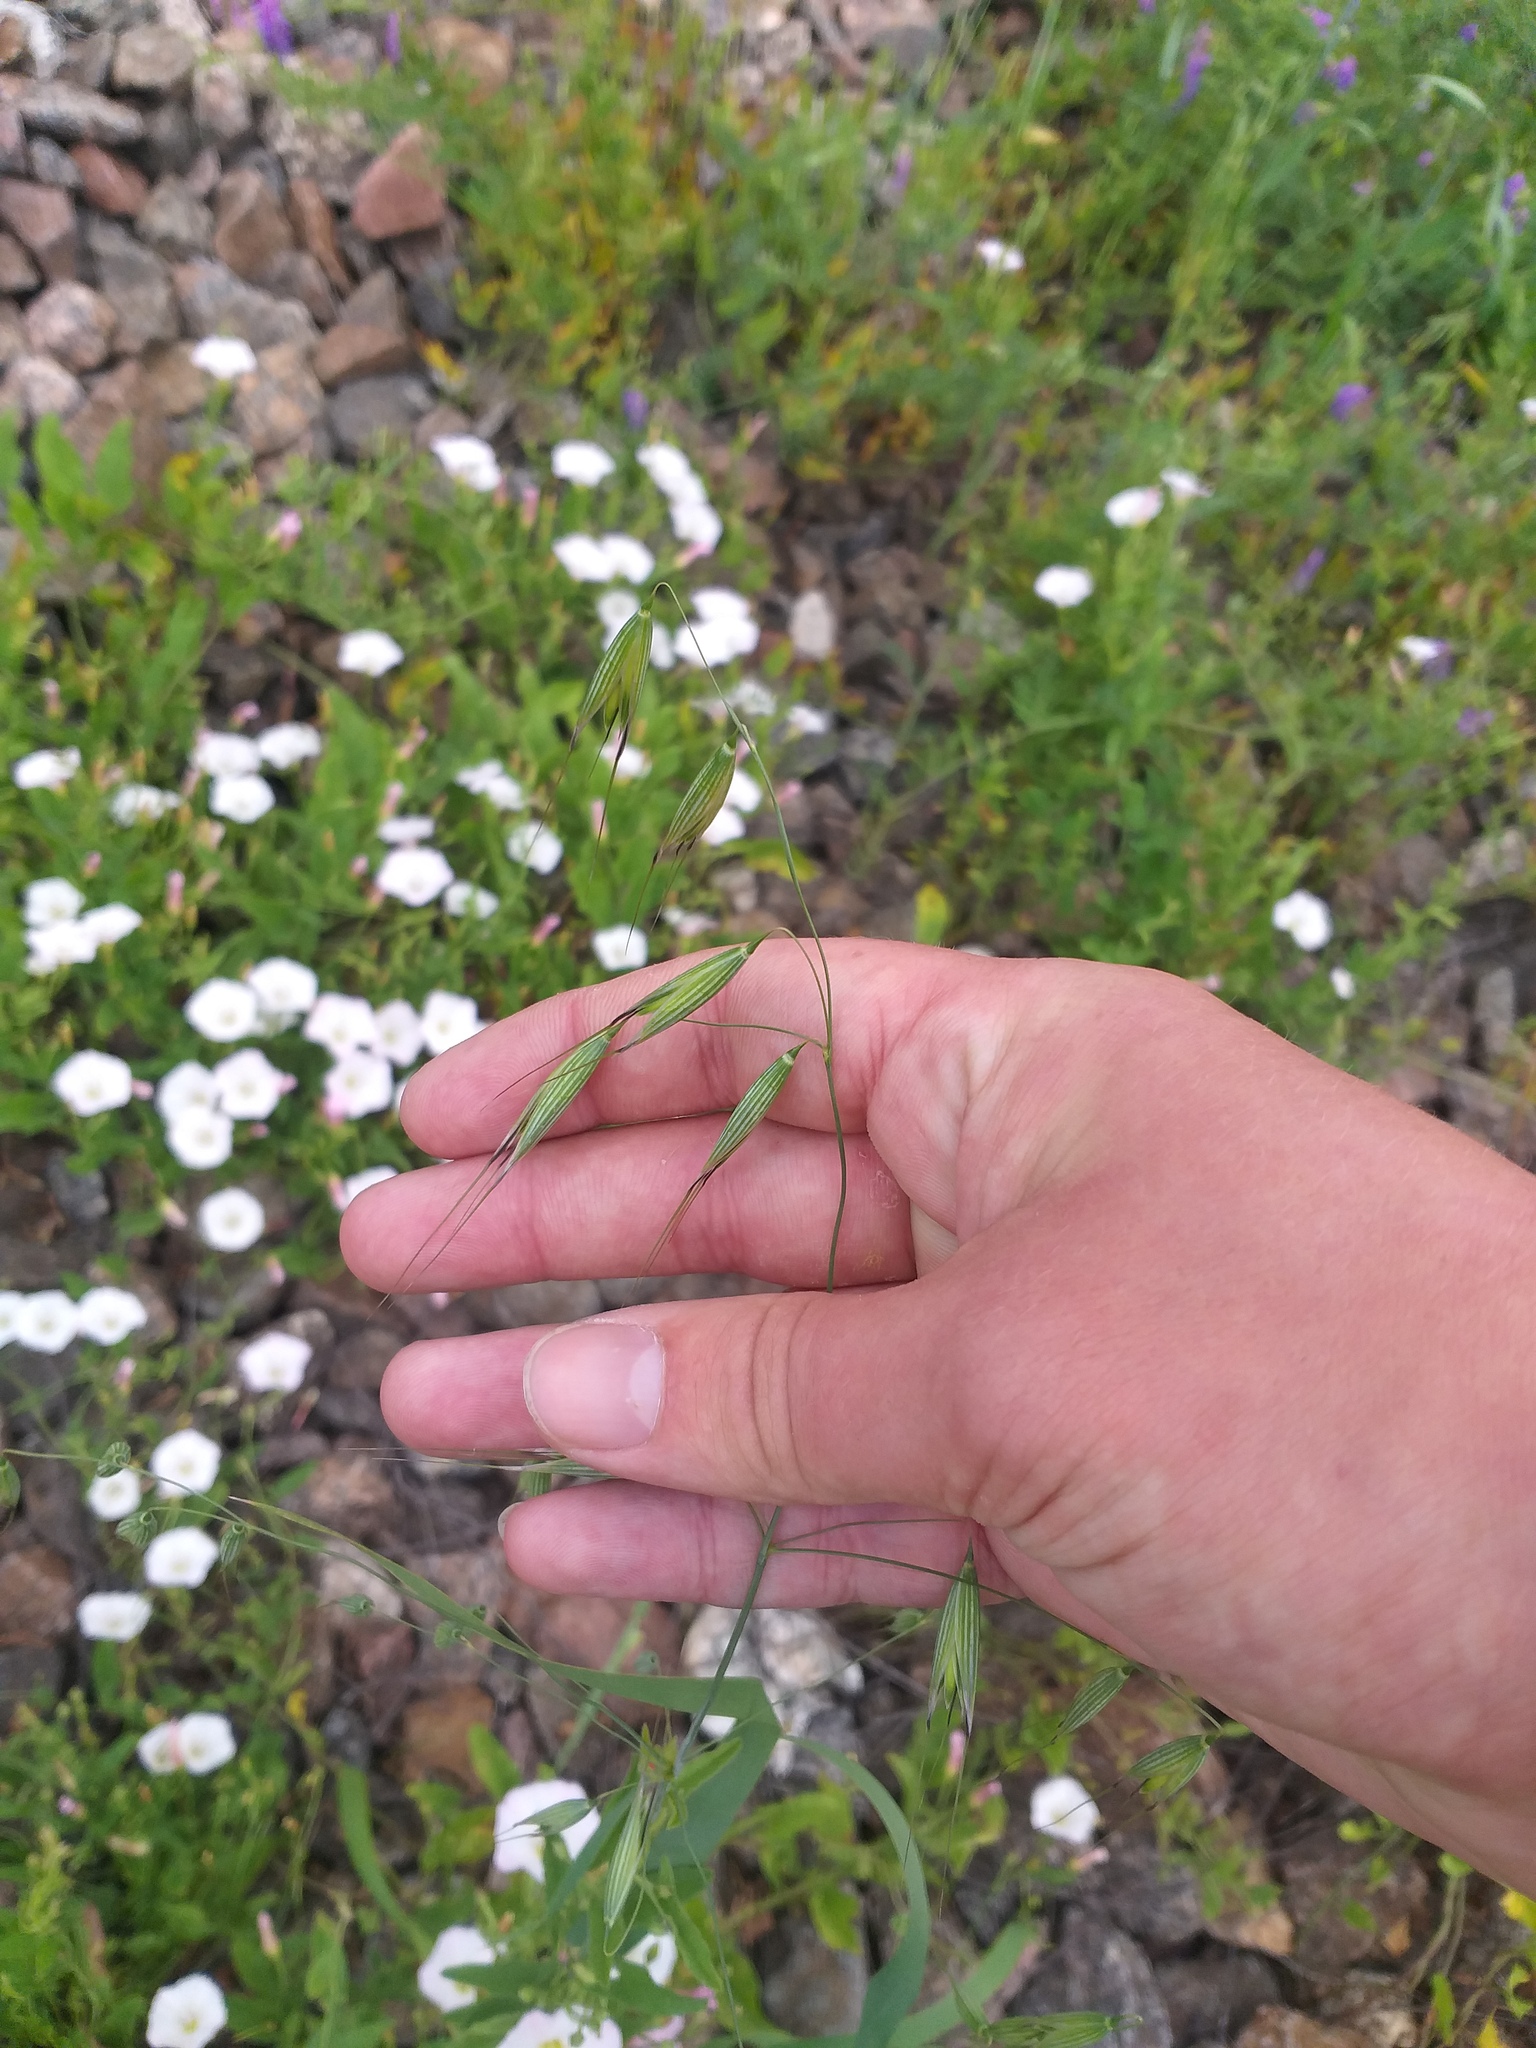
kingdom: Plantae
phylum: Tracheophyta
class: Liliopsida
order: Poales
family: Poaceae
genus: Avena
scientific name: Avena fatua
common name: Wild oat
